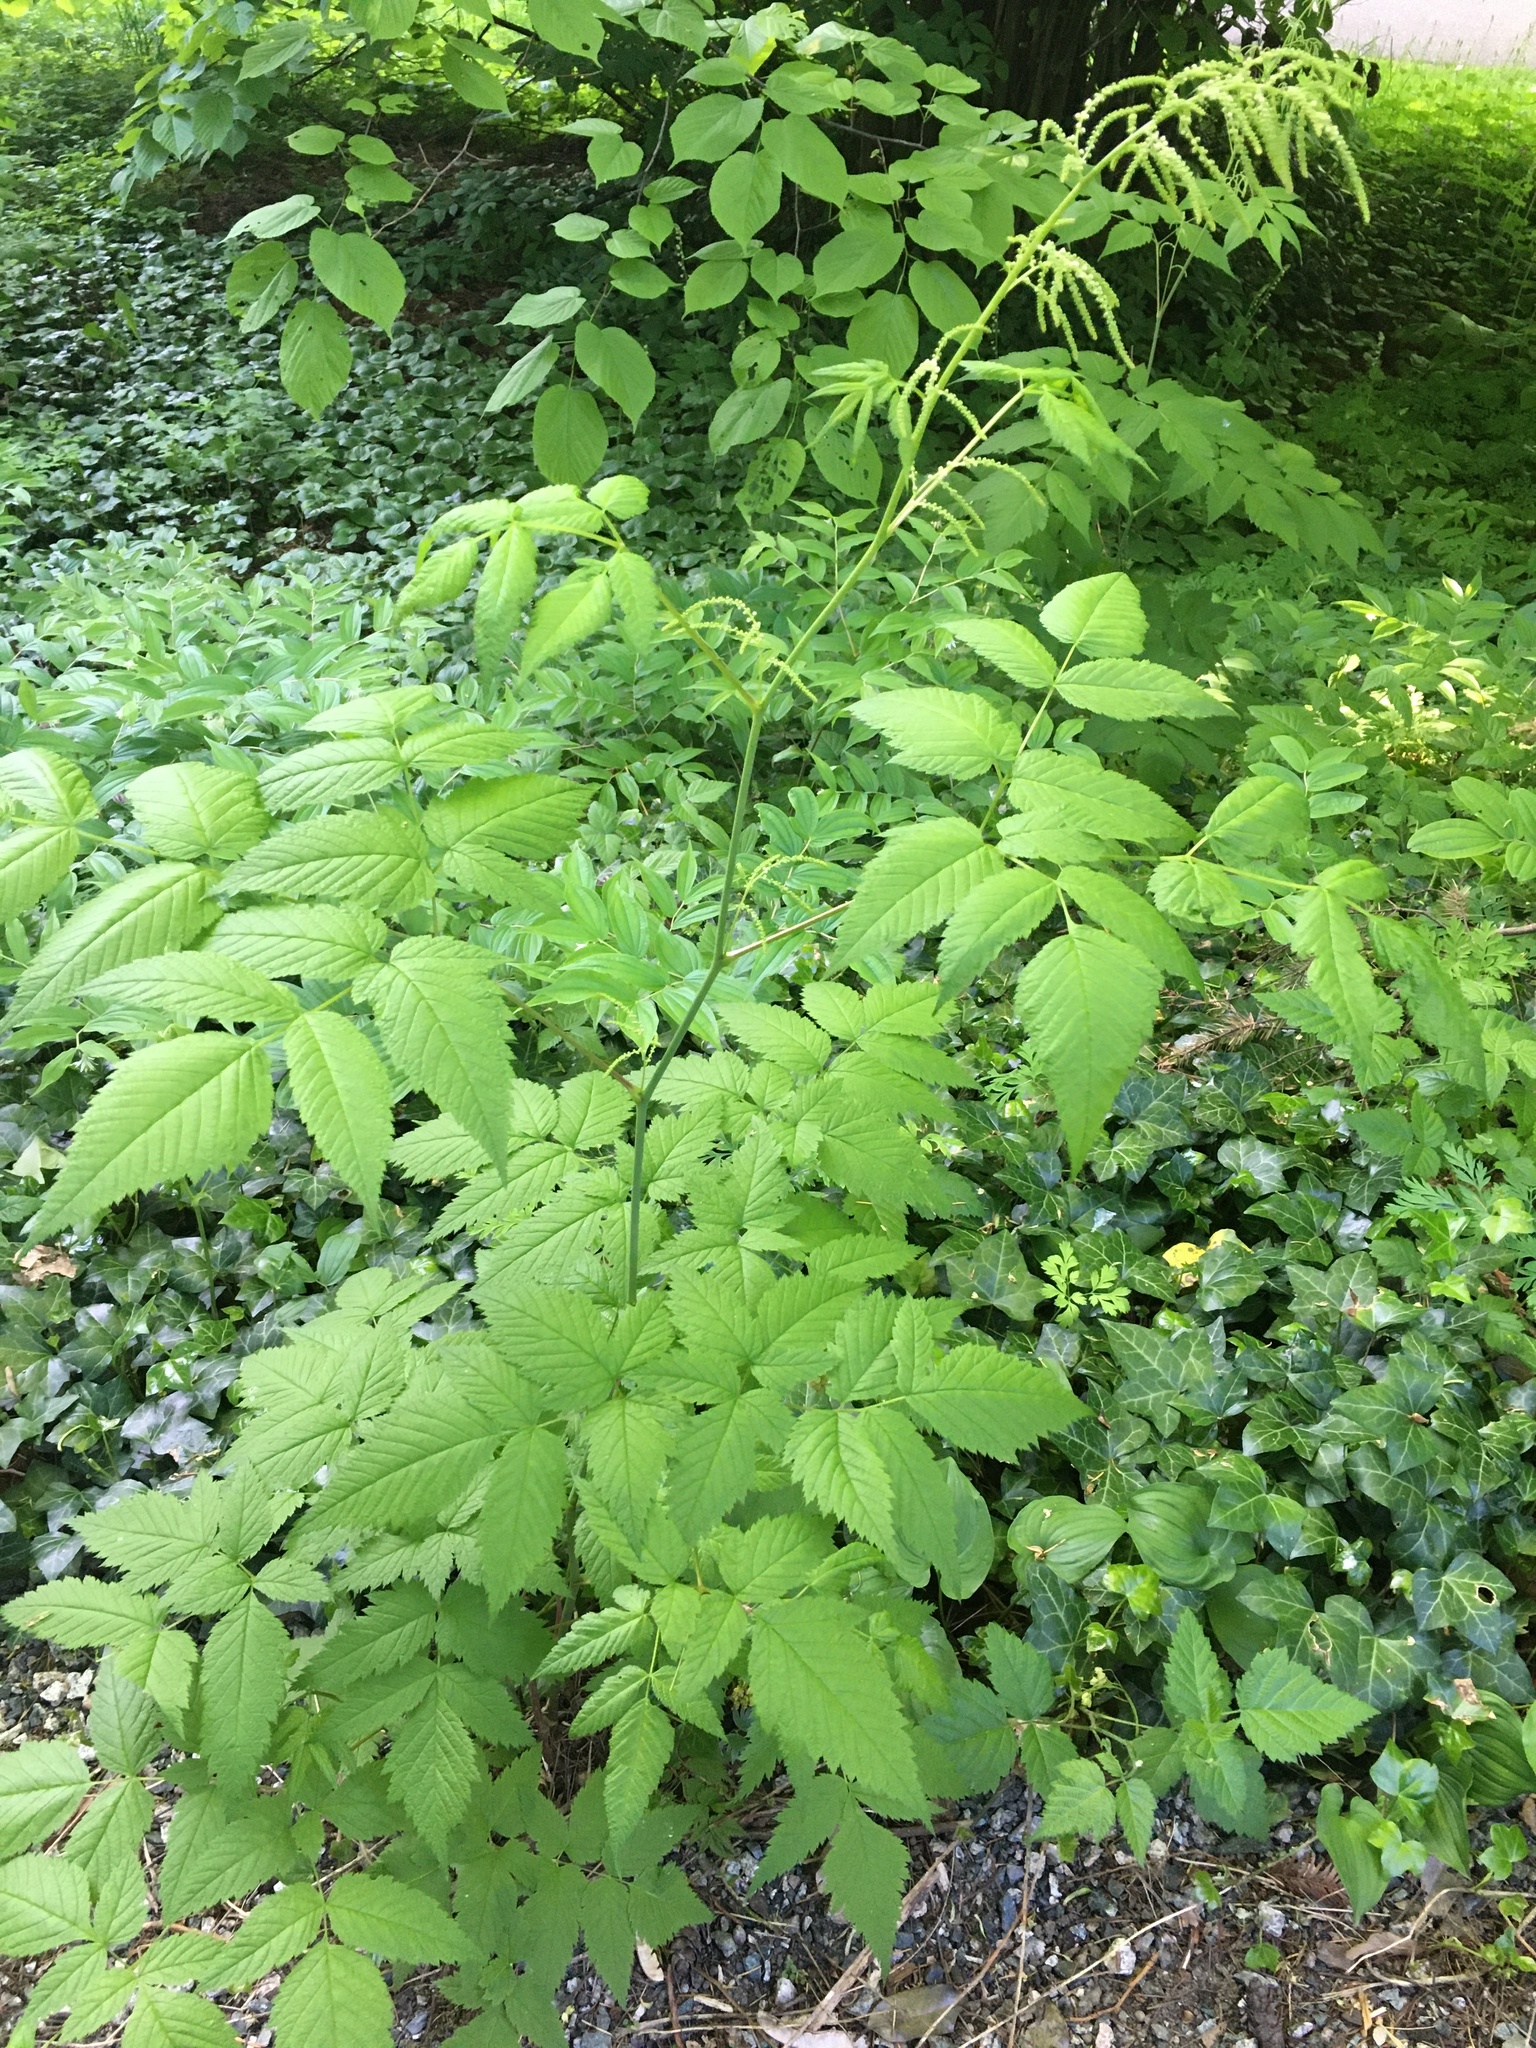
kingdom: Plantae
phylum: Tracheophyta
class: Magnoliopsida
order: Rosales
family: Rosaceae
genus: Aruncus
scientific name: Aruncus dioicus
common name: Buck's-beard
